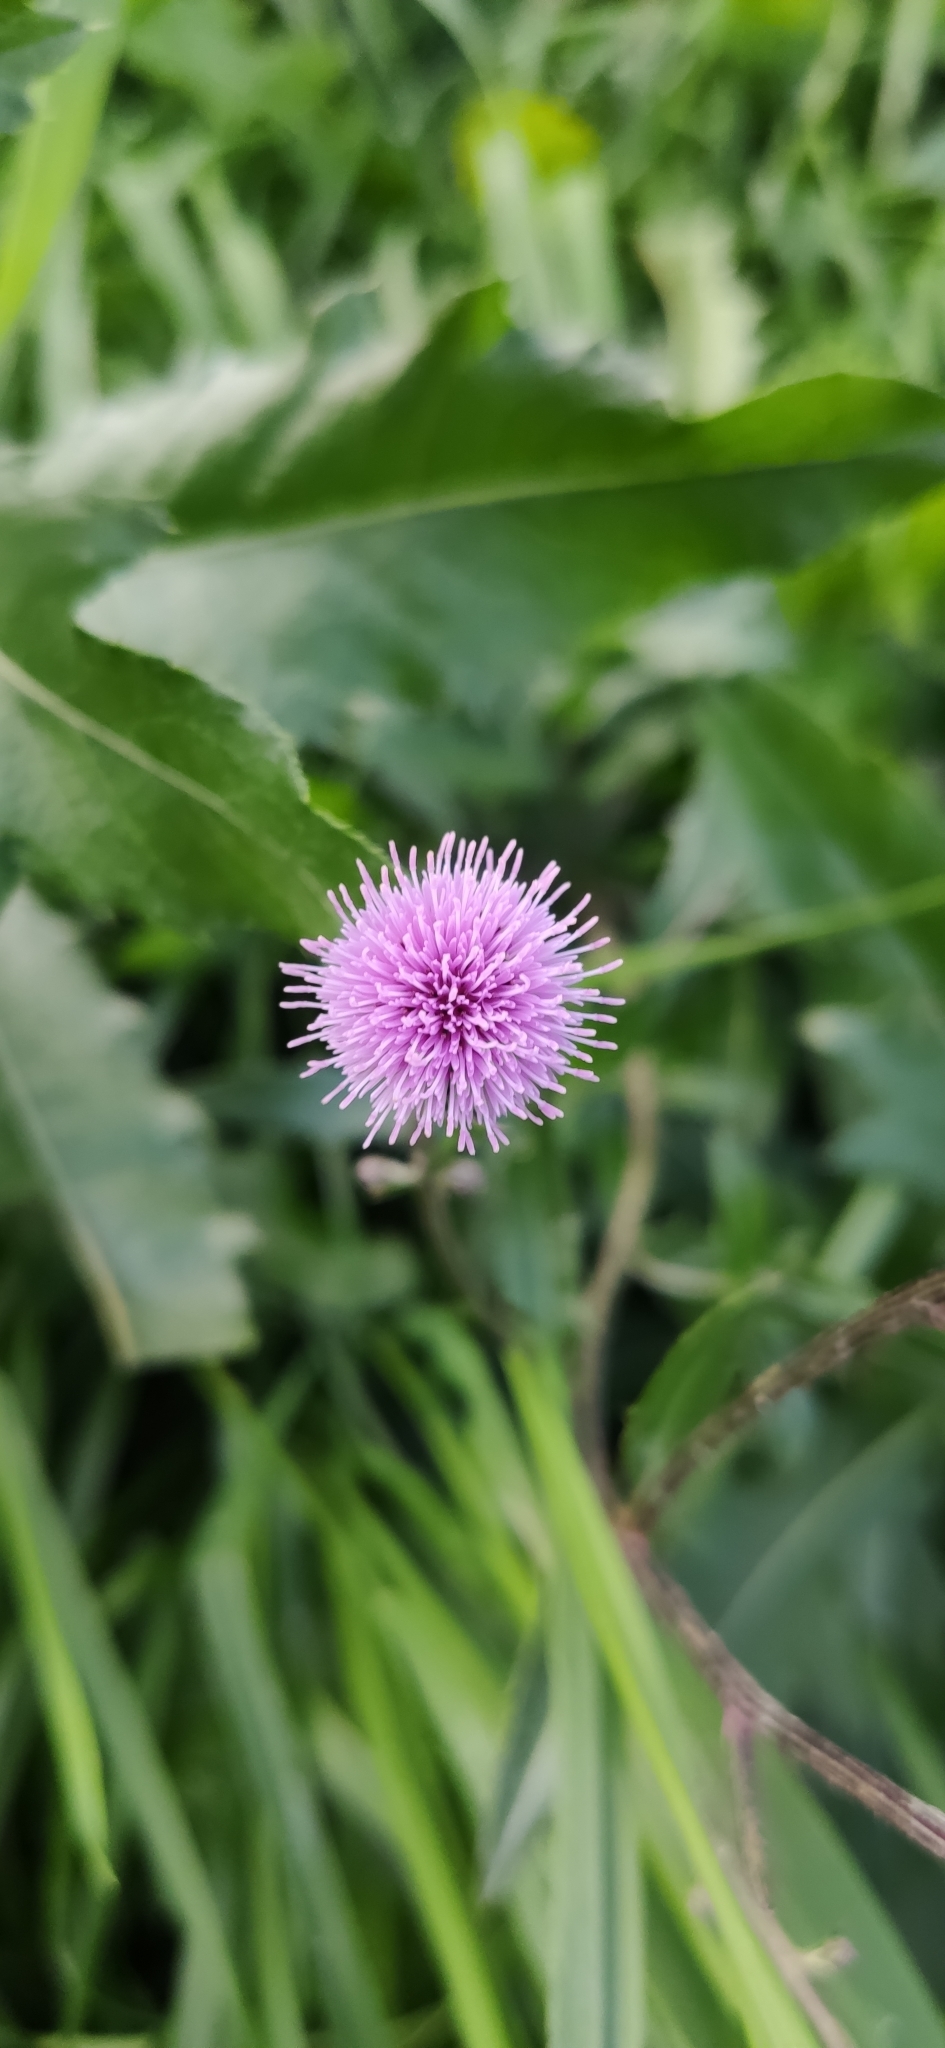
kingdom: Plantae
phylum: Tracheophyta
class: Magnoliopsida
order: Asterales
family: Asteraceae
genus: Cirsium
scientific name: Cirsium arvense
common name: Creeping thistle
